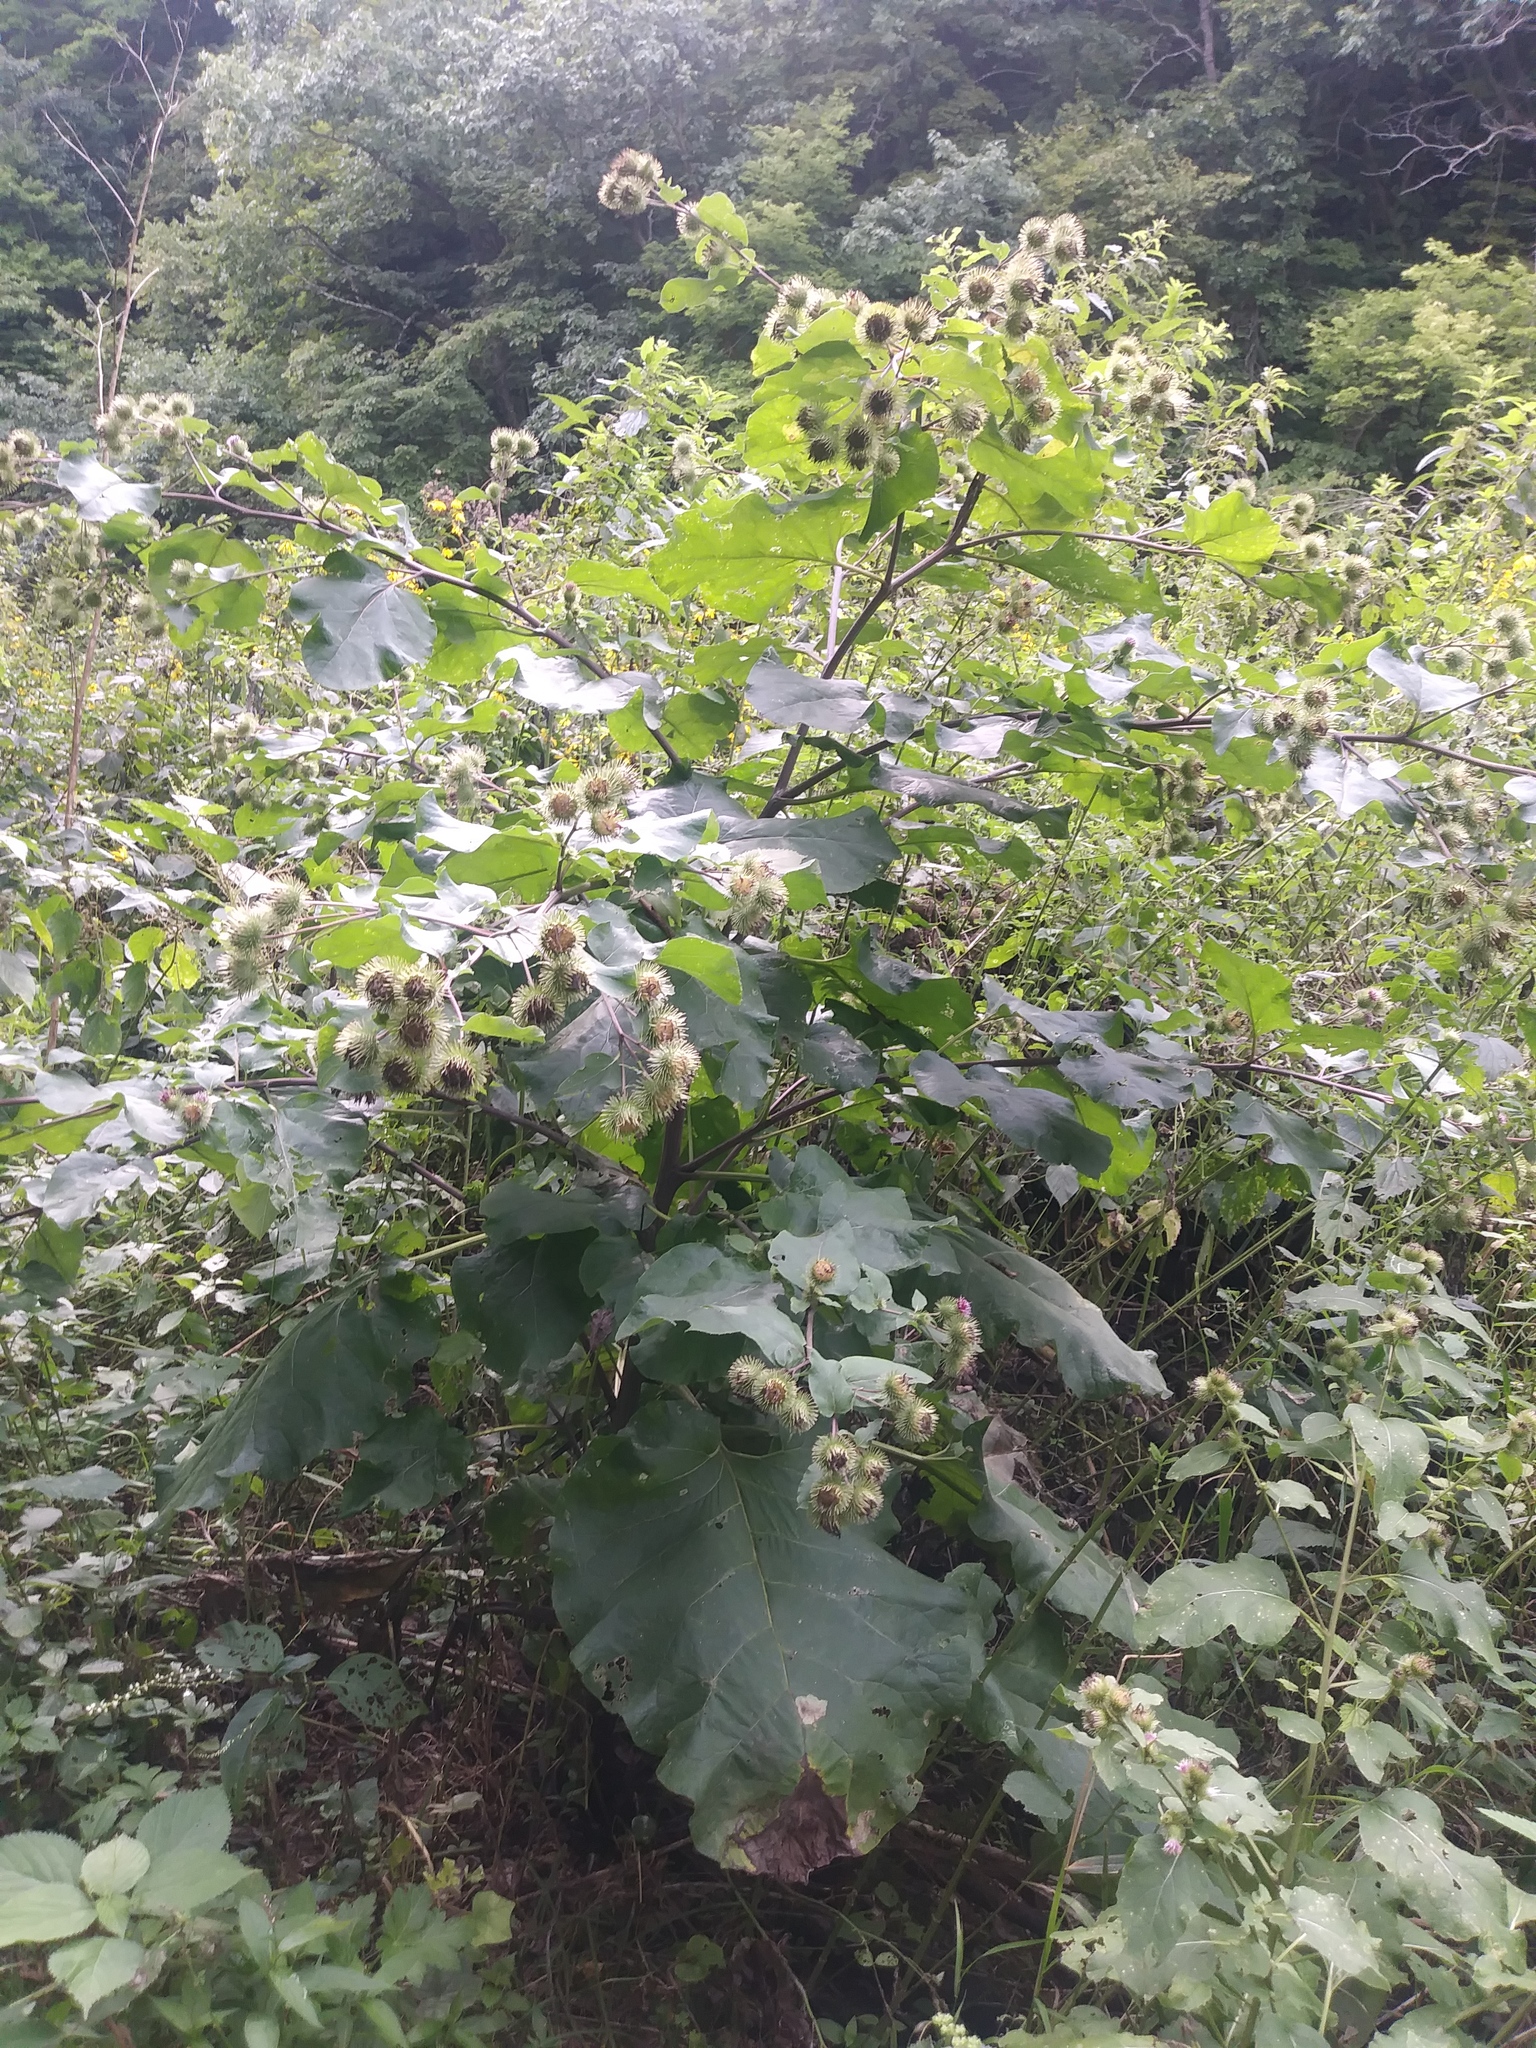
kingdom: Plantae
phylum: Tracheophyta
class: Magnoliopsida
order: Asterales
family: Asteraceae
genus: Arctium
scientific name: Arctium lappa
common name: Greater burdock
